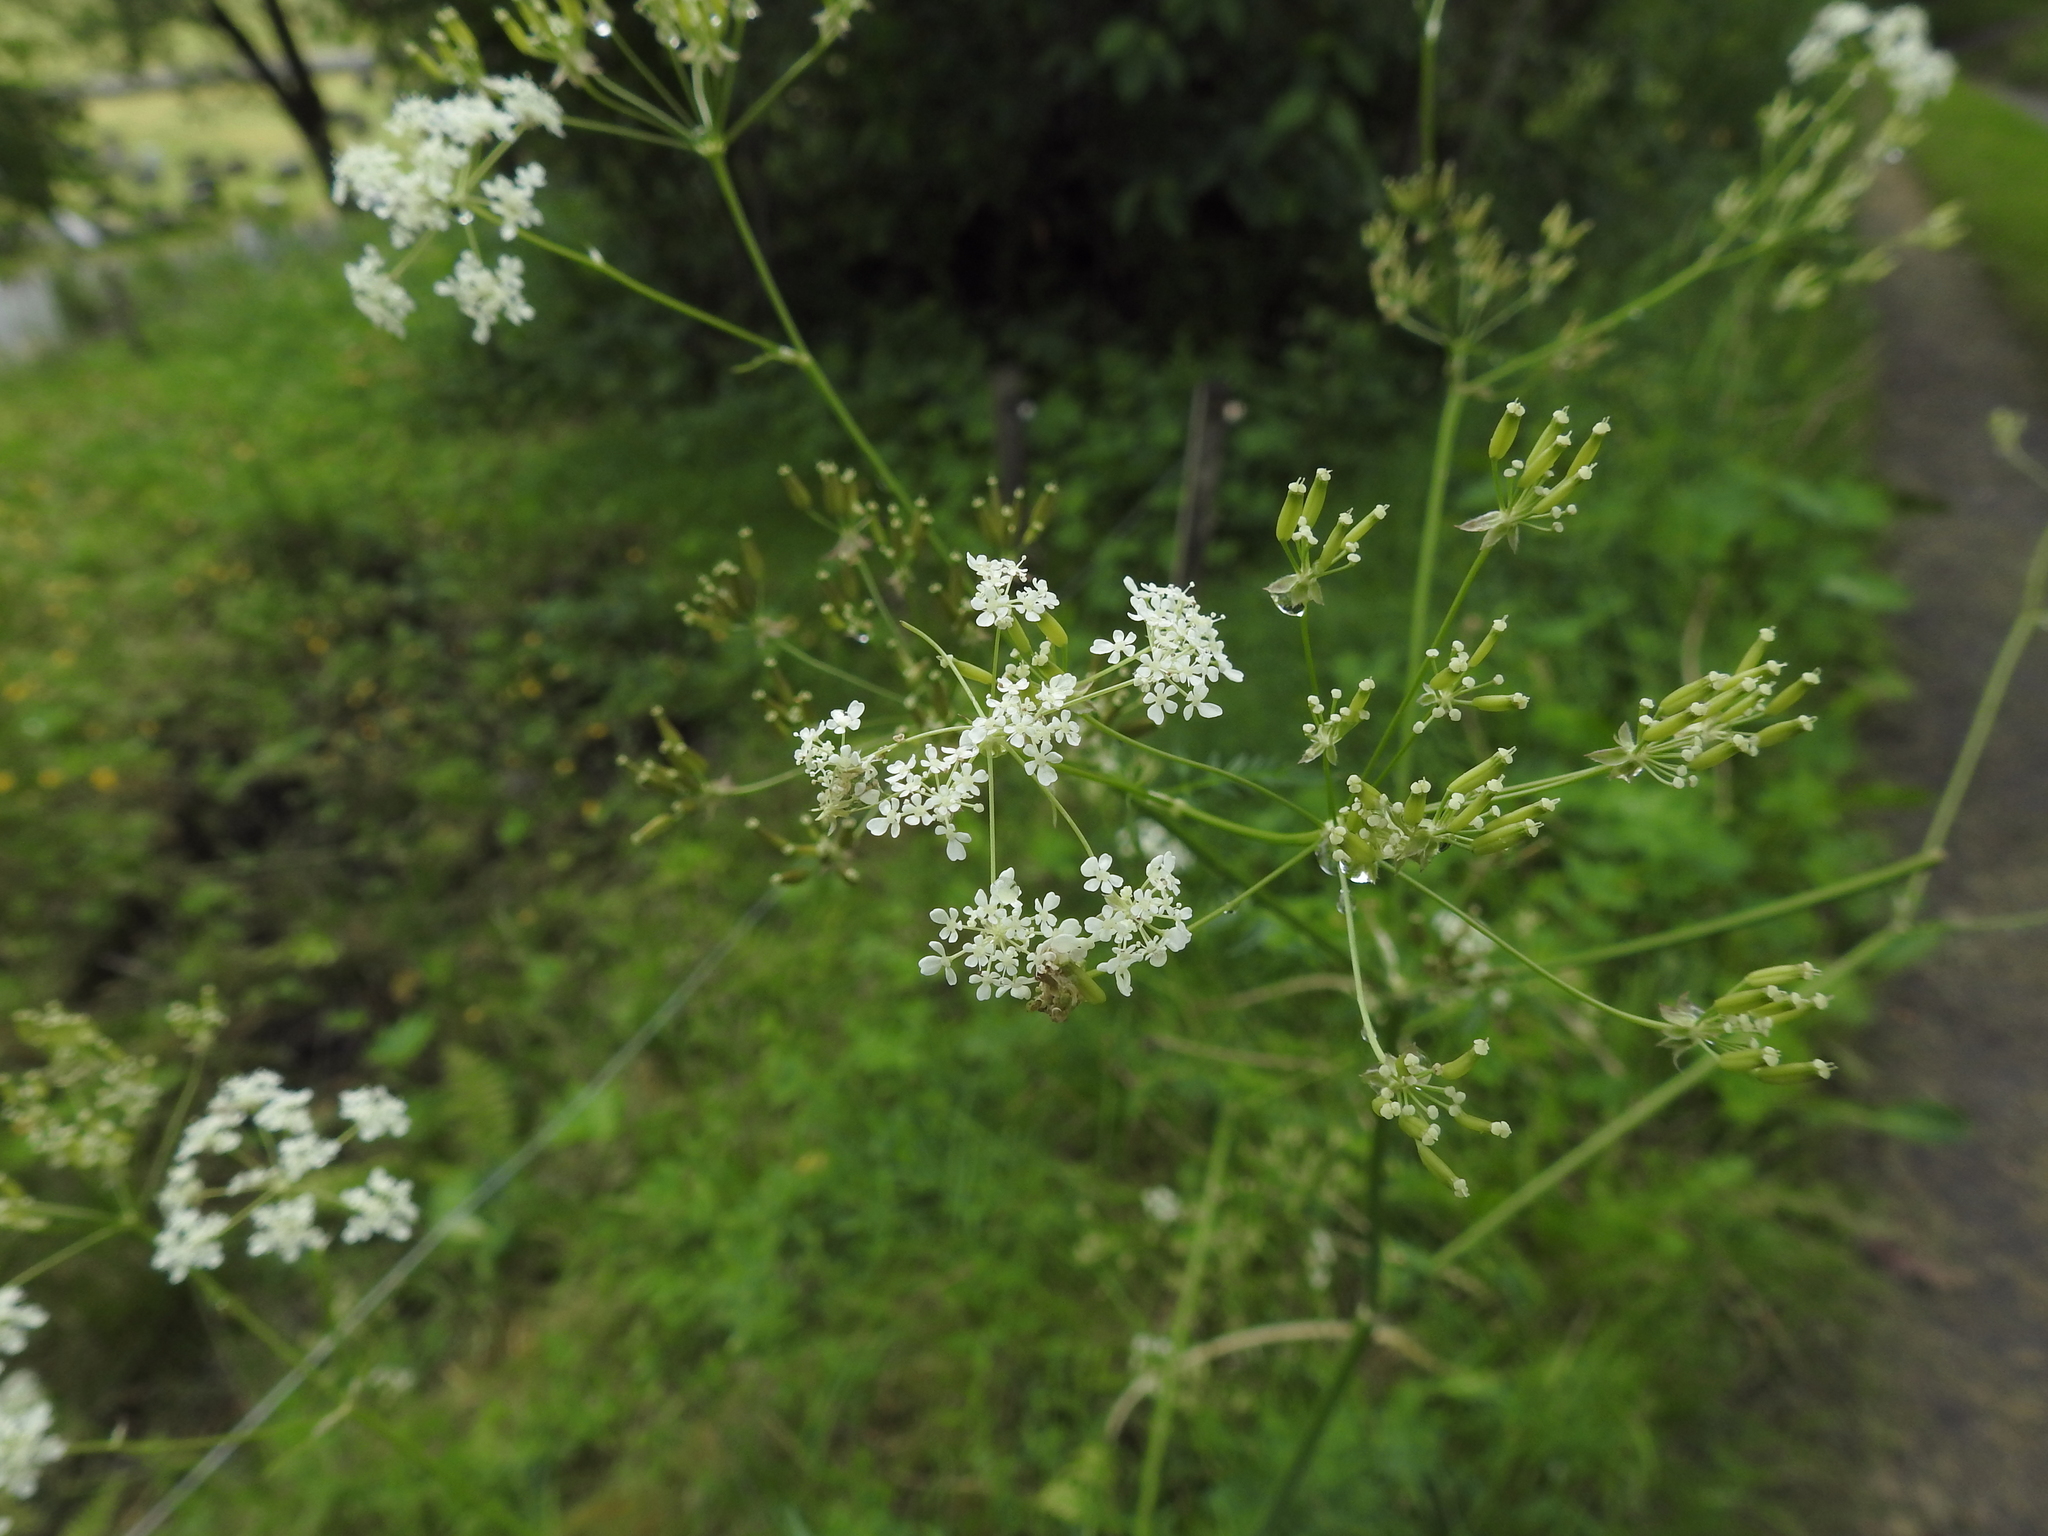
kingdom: Plantae
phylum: Tracheophyta
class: Magnoliopsida
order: Apiales
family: Apiaceae
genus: Anthriscus
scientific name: Anthriscus sylvestris
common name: Cow parsley
